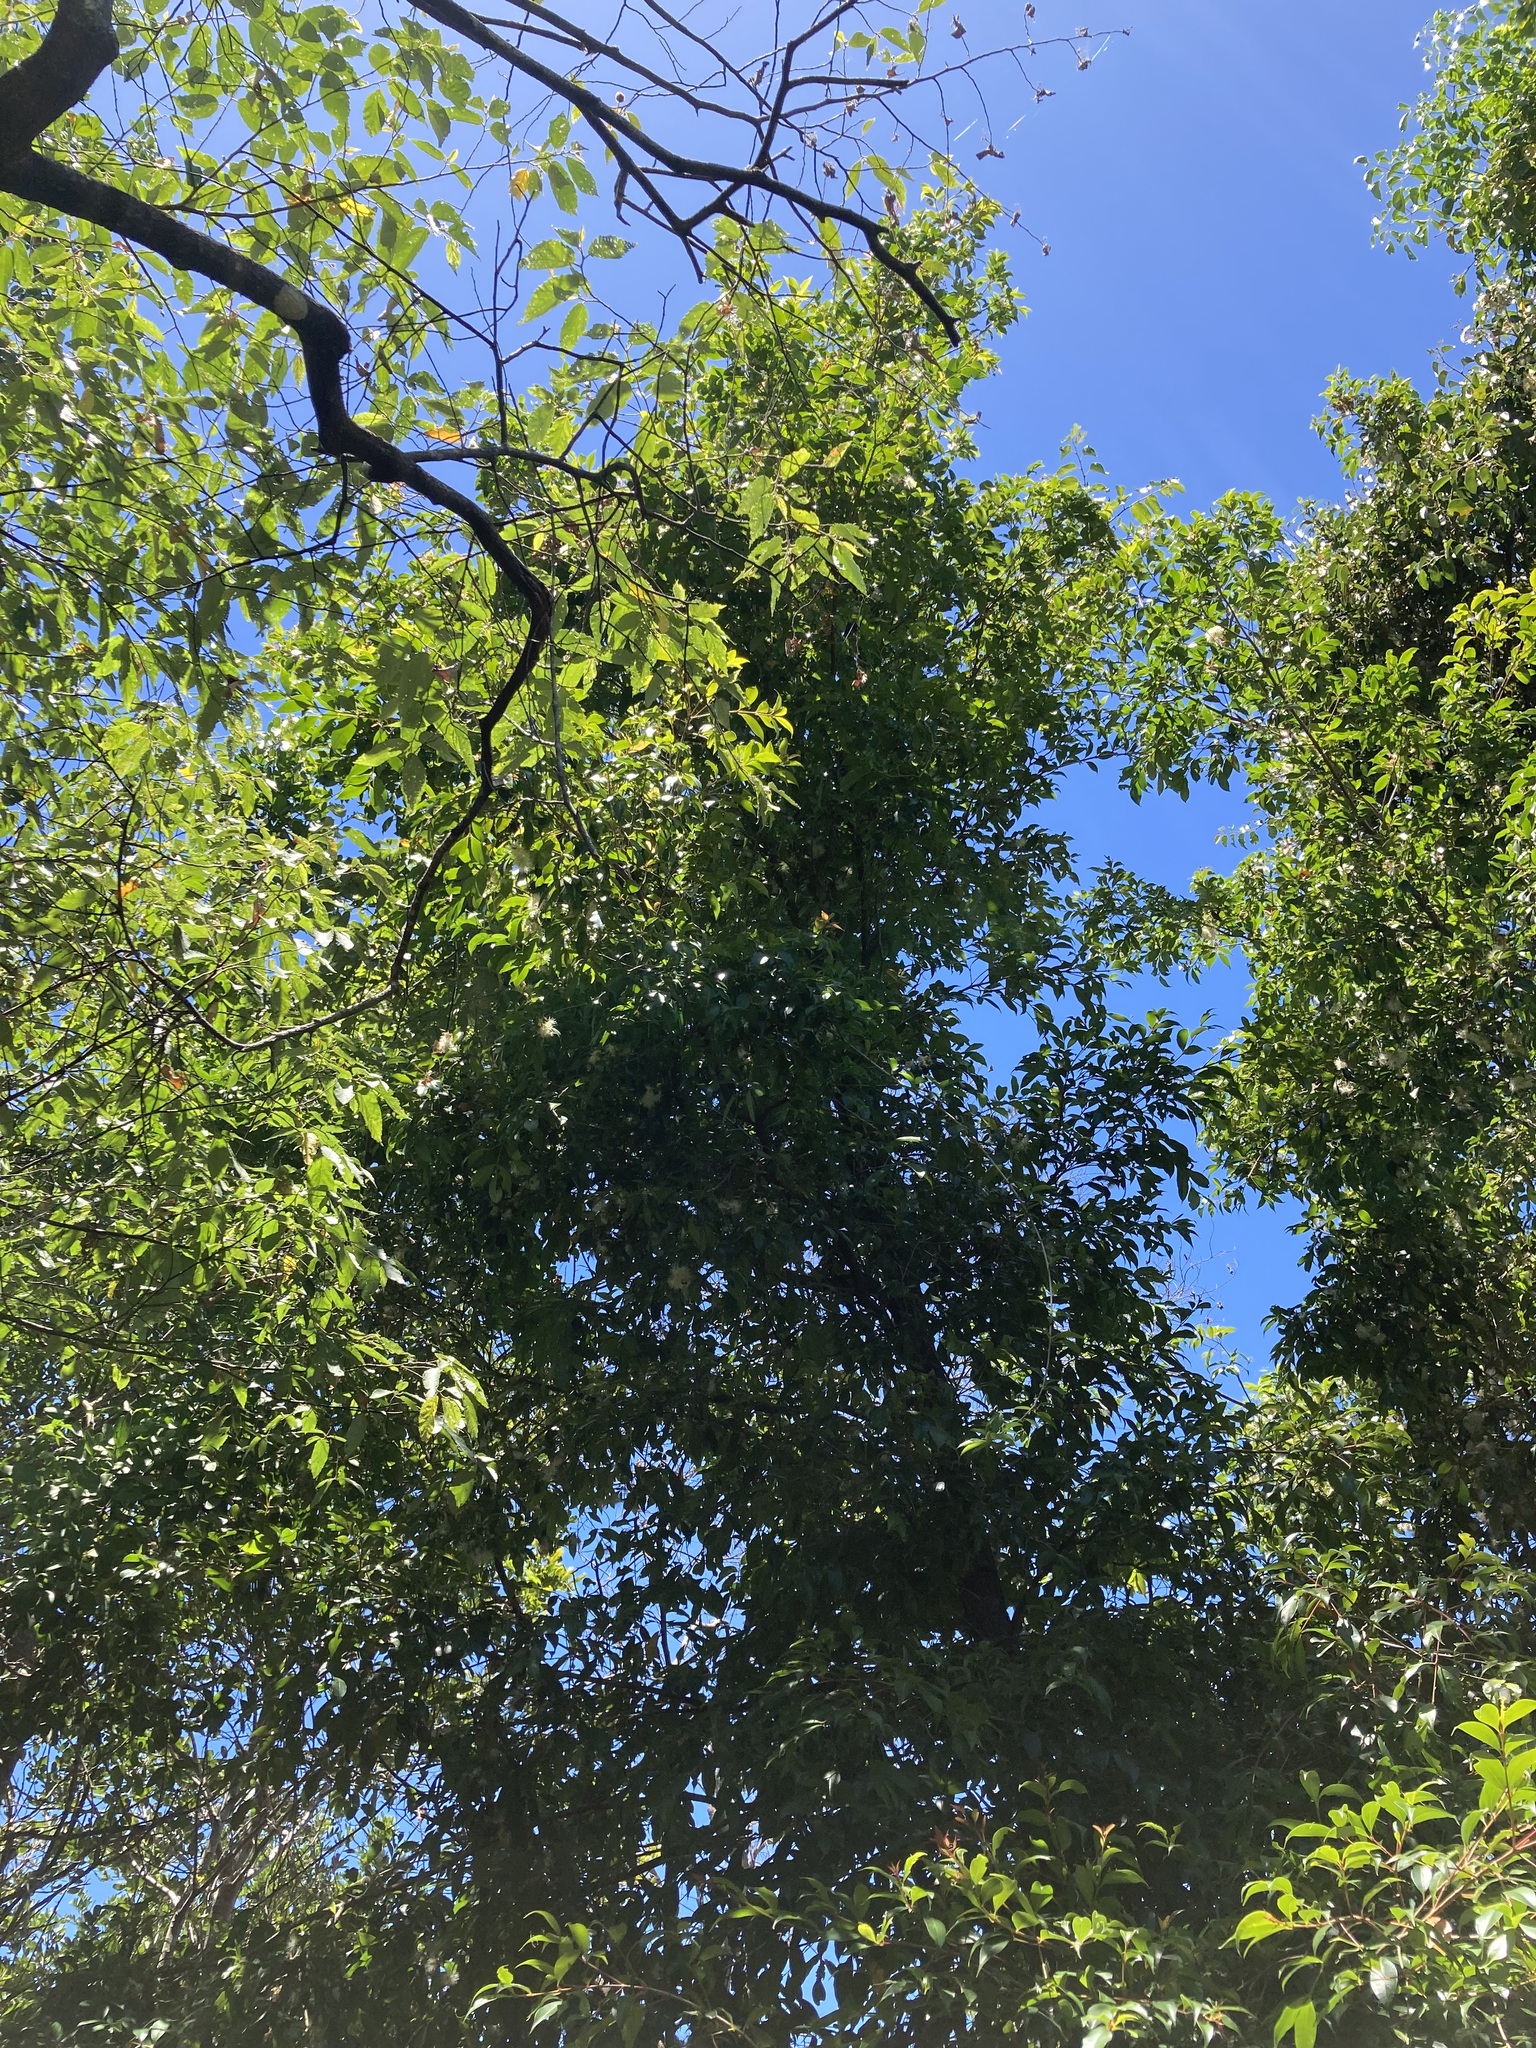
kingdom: Plantae
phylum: Tracheophyta
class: Magnoliopsida
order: Myrtales
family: Myrtaceae
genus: Syzygium
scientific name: Syzygium oleosum
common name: Oily satin-ash
